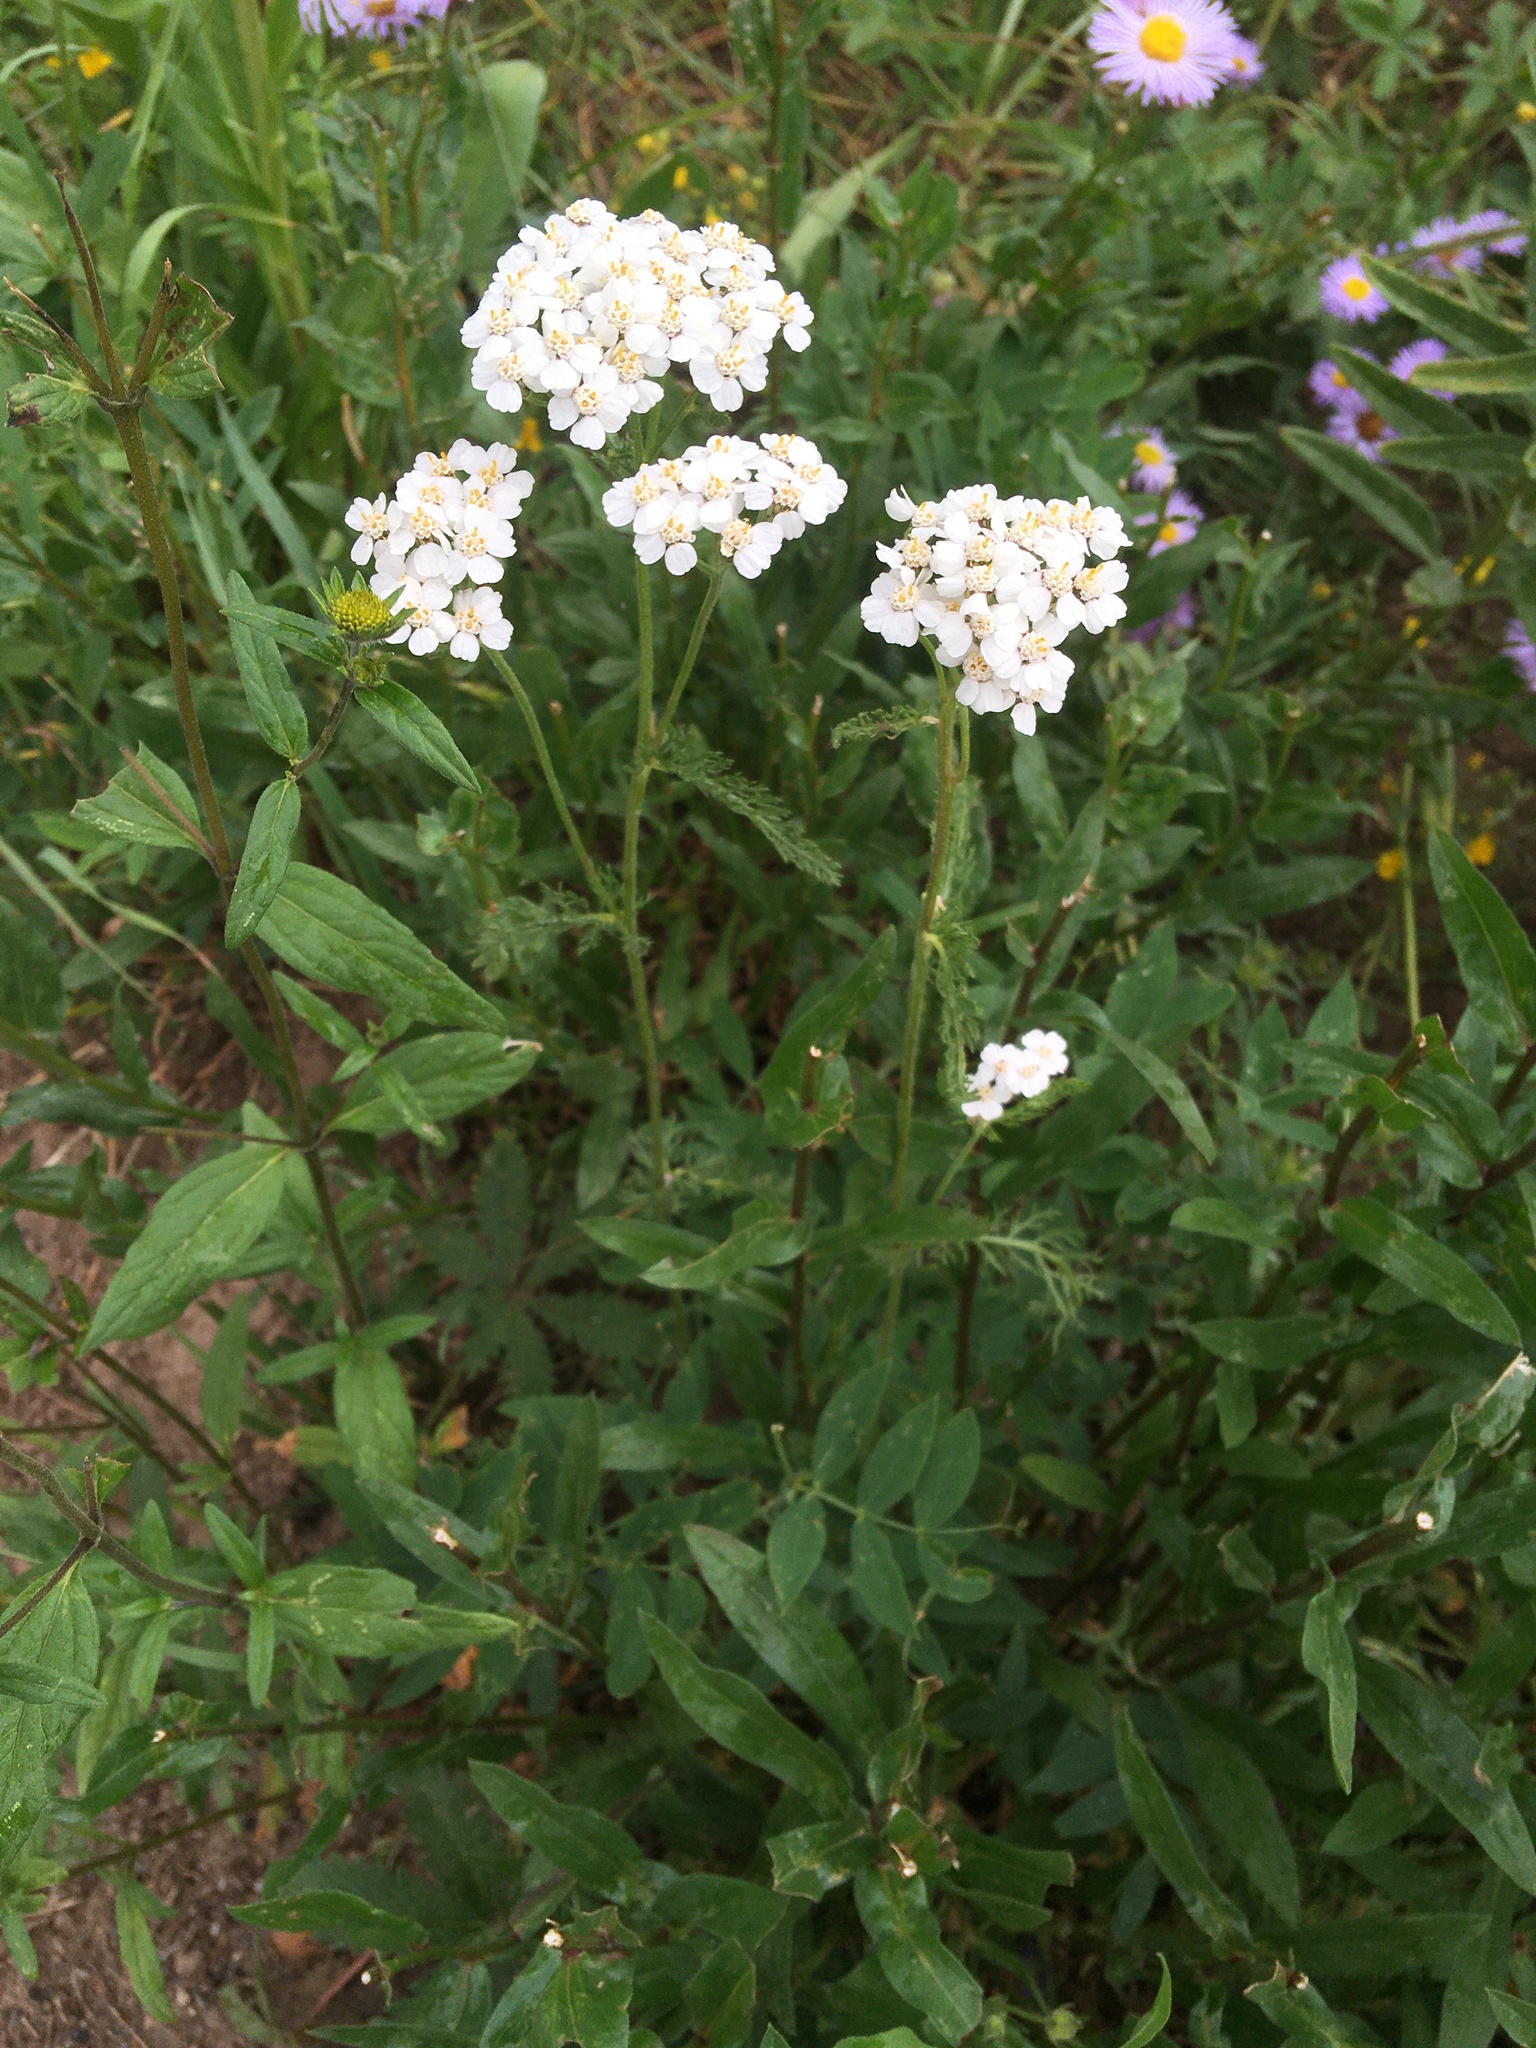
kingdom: Plantae
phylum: Tracheophyta
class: Magnoliopsida
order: Asterales
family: Asteraceae
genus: Achillea
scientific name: Achillea millefolium
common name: Yarrow
